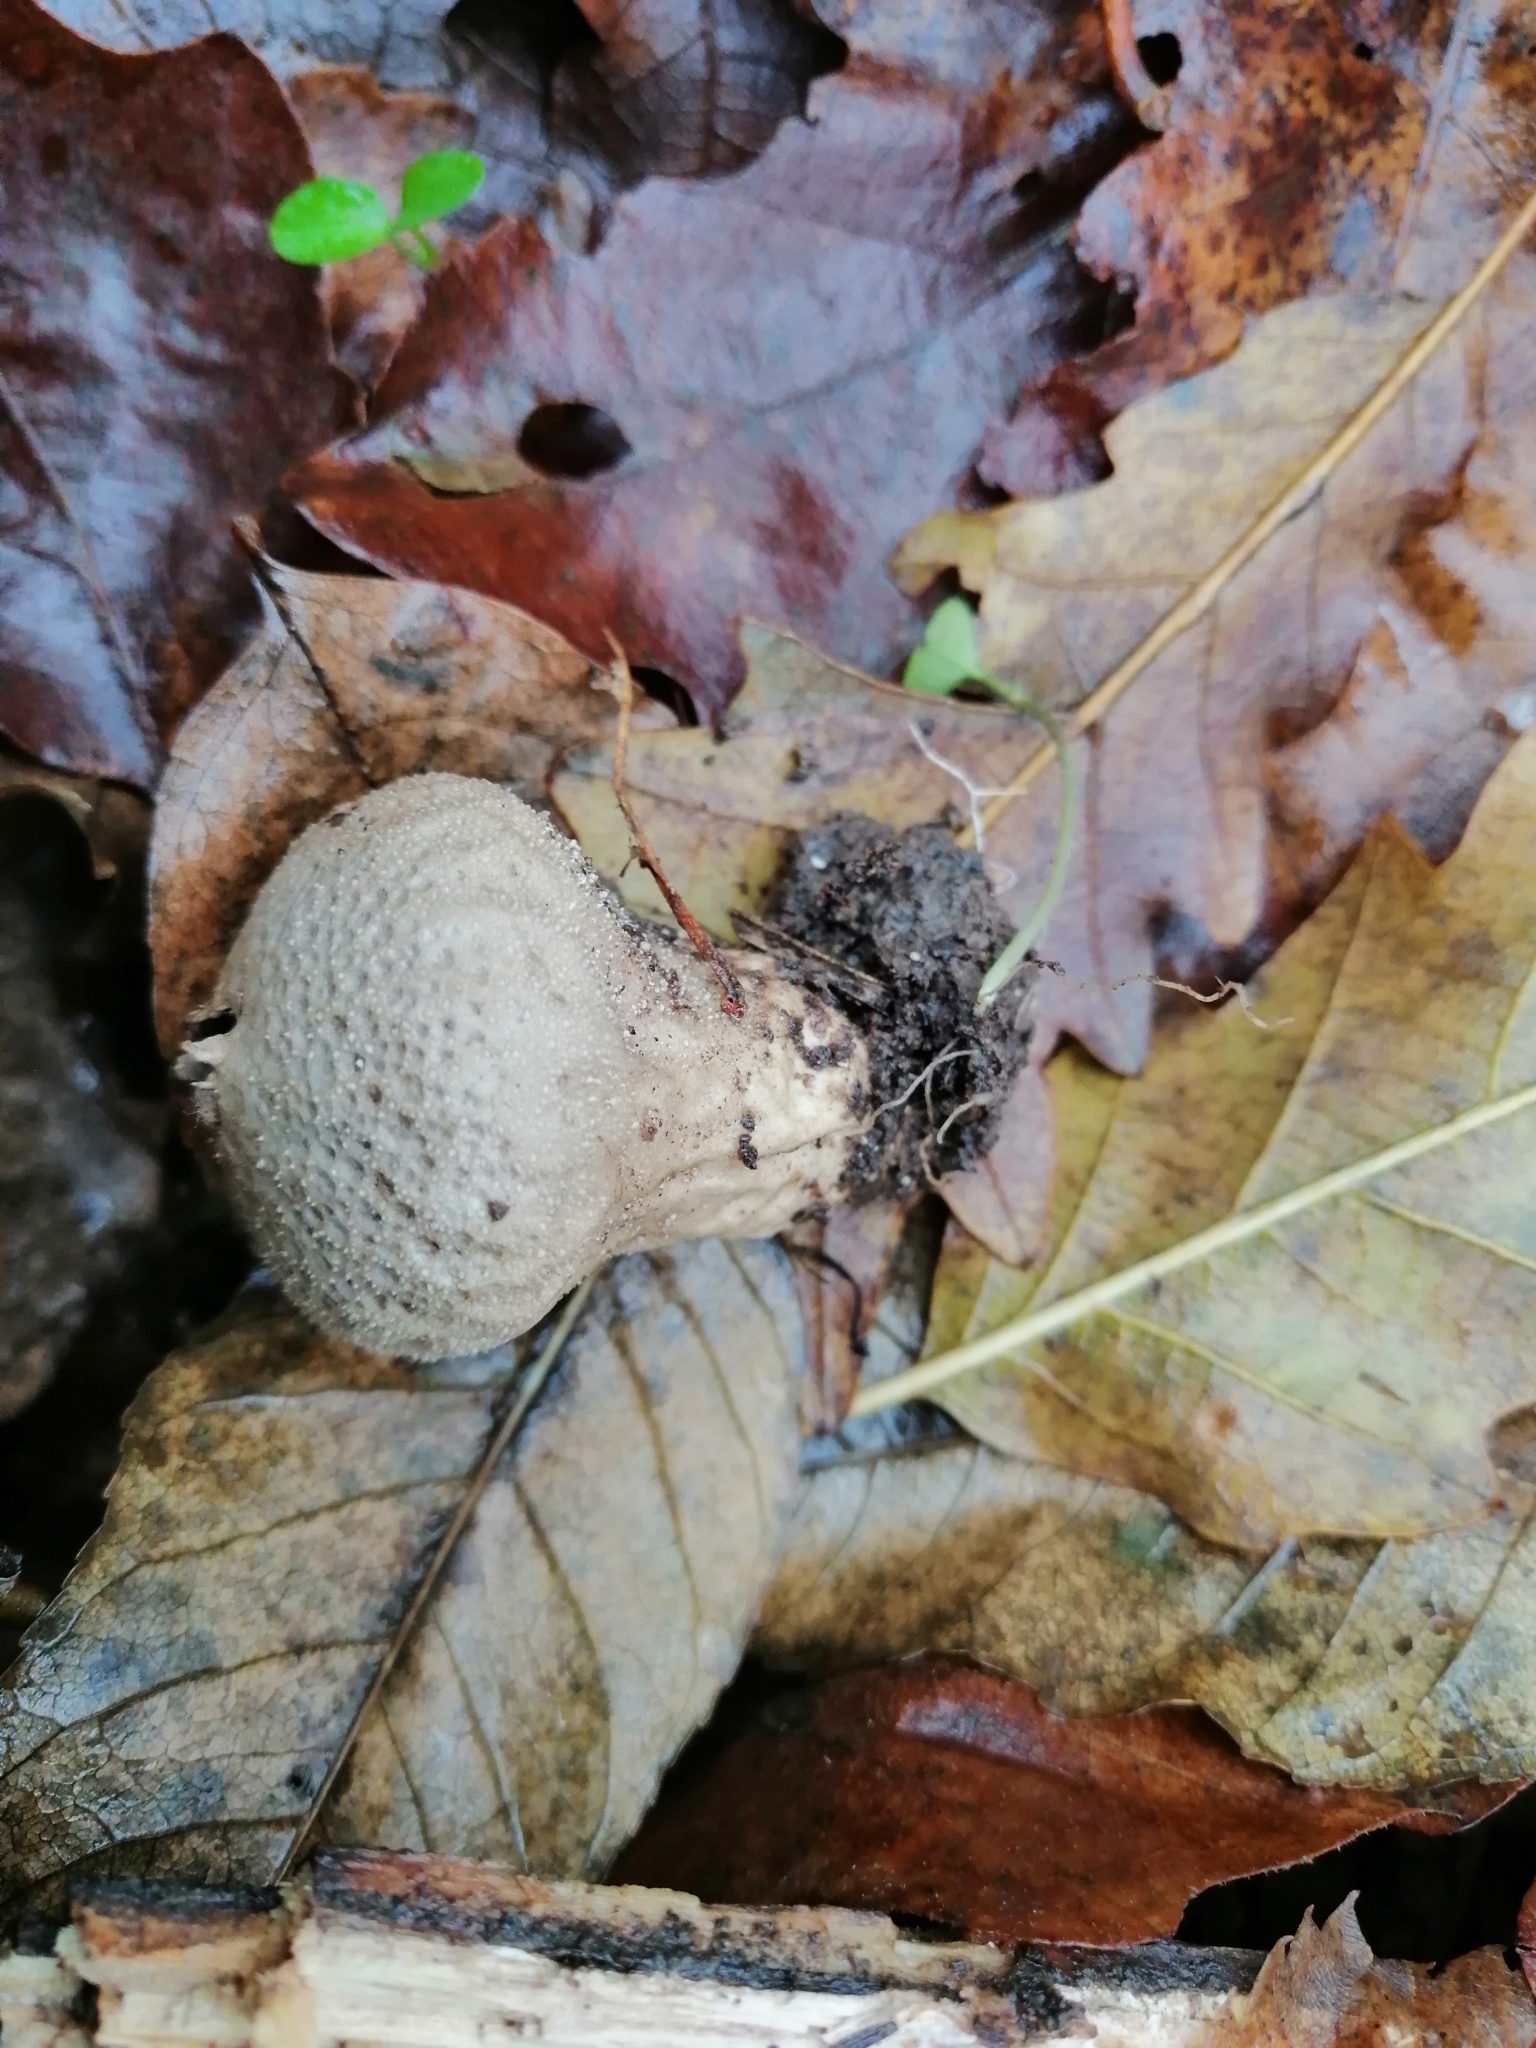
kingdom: Fungi
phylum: Basidiomycota
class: Agaricomycetes
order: Agaricales
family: Lycoperdaceae
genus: Lycoperdon
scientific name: Lycoperdon perlatum
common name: Common puffball
